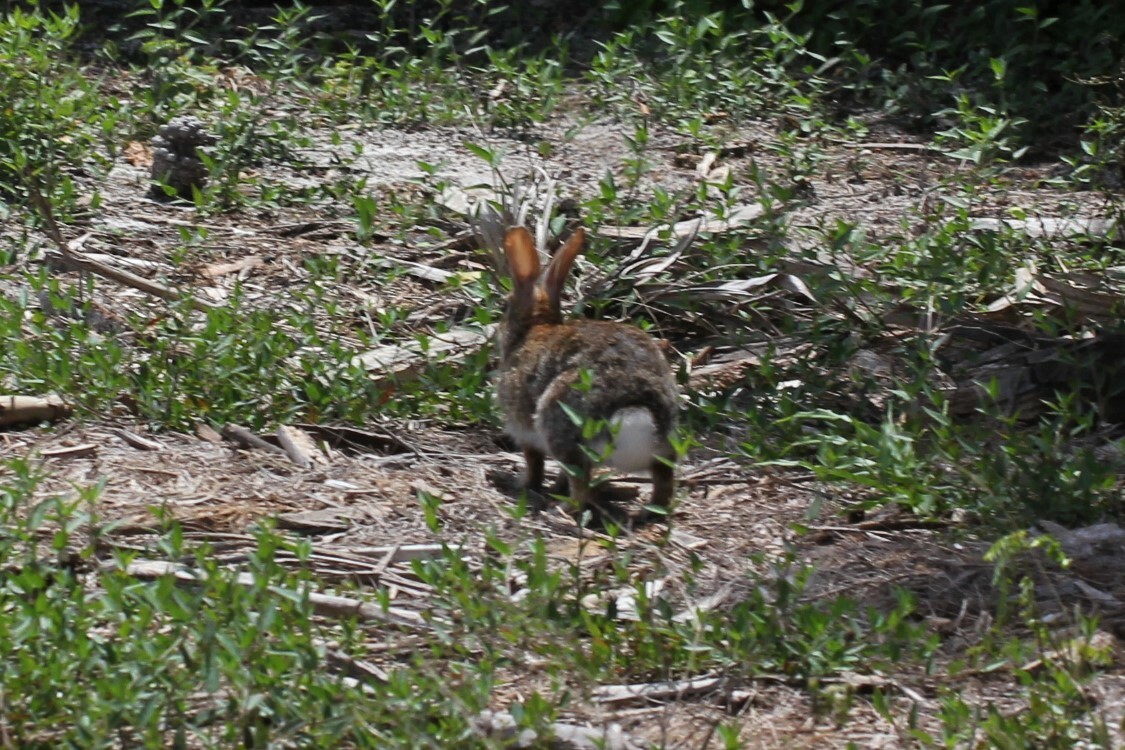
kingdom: Animalia
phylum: Chordata
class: Mammalia
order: Lagomorpha
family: Leporidae
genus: Sylvilagus
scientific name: Sylvilagus floridanus
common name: Eastern cottontail
